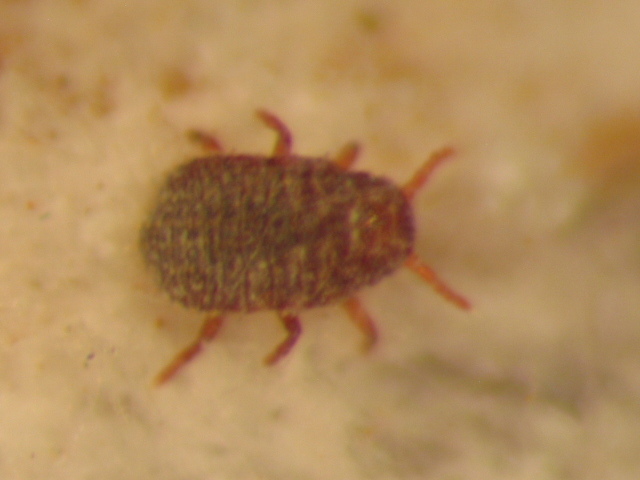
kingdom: Animalia
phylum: Arthropoda
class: Insecta
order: Hemiptera
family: Dactylopiidae
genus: Dactylopius
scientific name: Dactylopius tomentosus
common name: Tomentose cochineal scale
